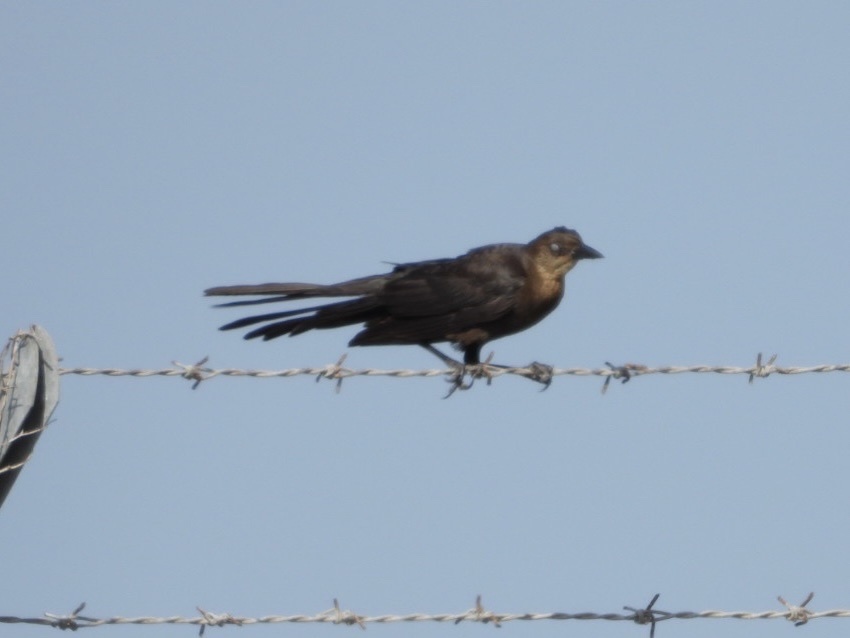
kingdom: Animalia
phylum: Chordata
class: Aves
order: Passeriformes
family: Icteridae
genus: Quiscalus
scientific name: Quiscalus mexicanus
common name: Great-tailed grackle
